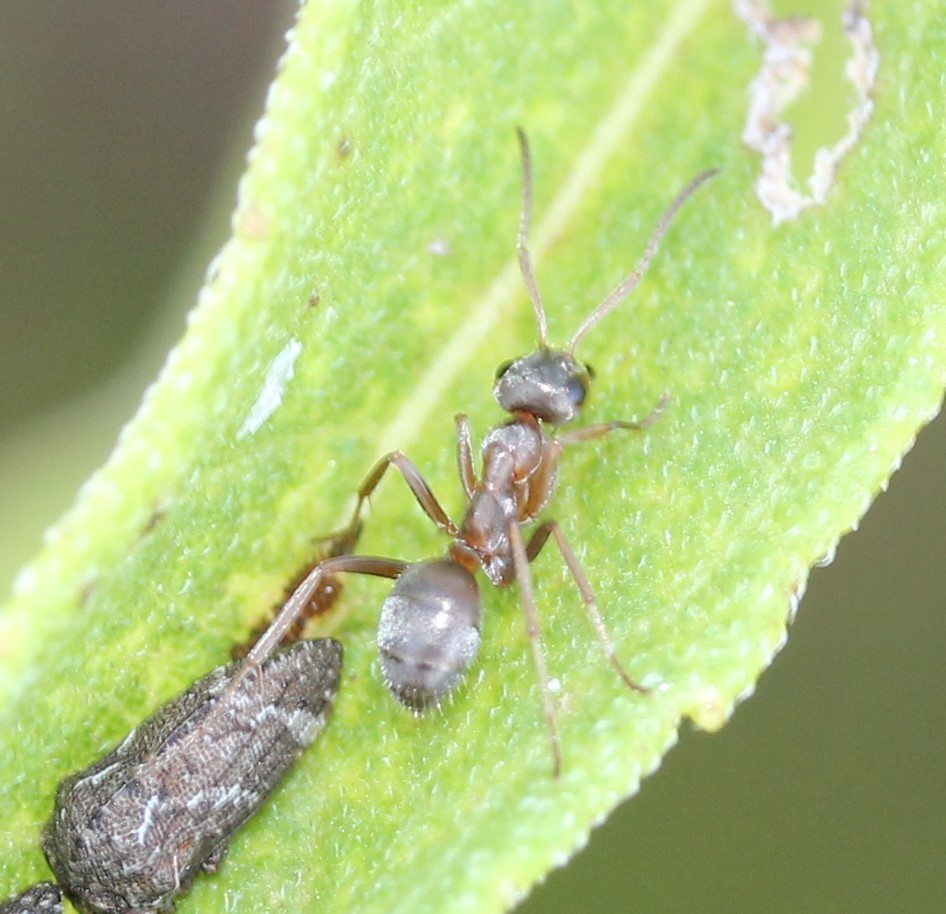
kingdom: Animalia
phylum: Arthropoda
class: Insecta
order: Hymenoptera
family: Formicidae
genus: Formica
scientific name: Formica montana
